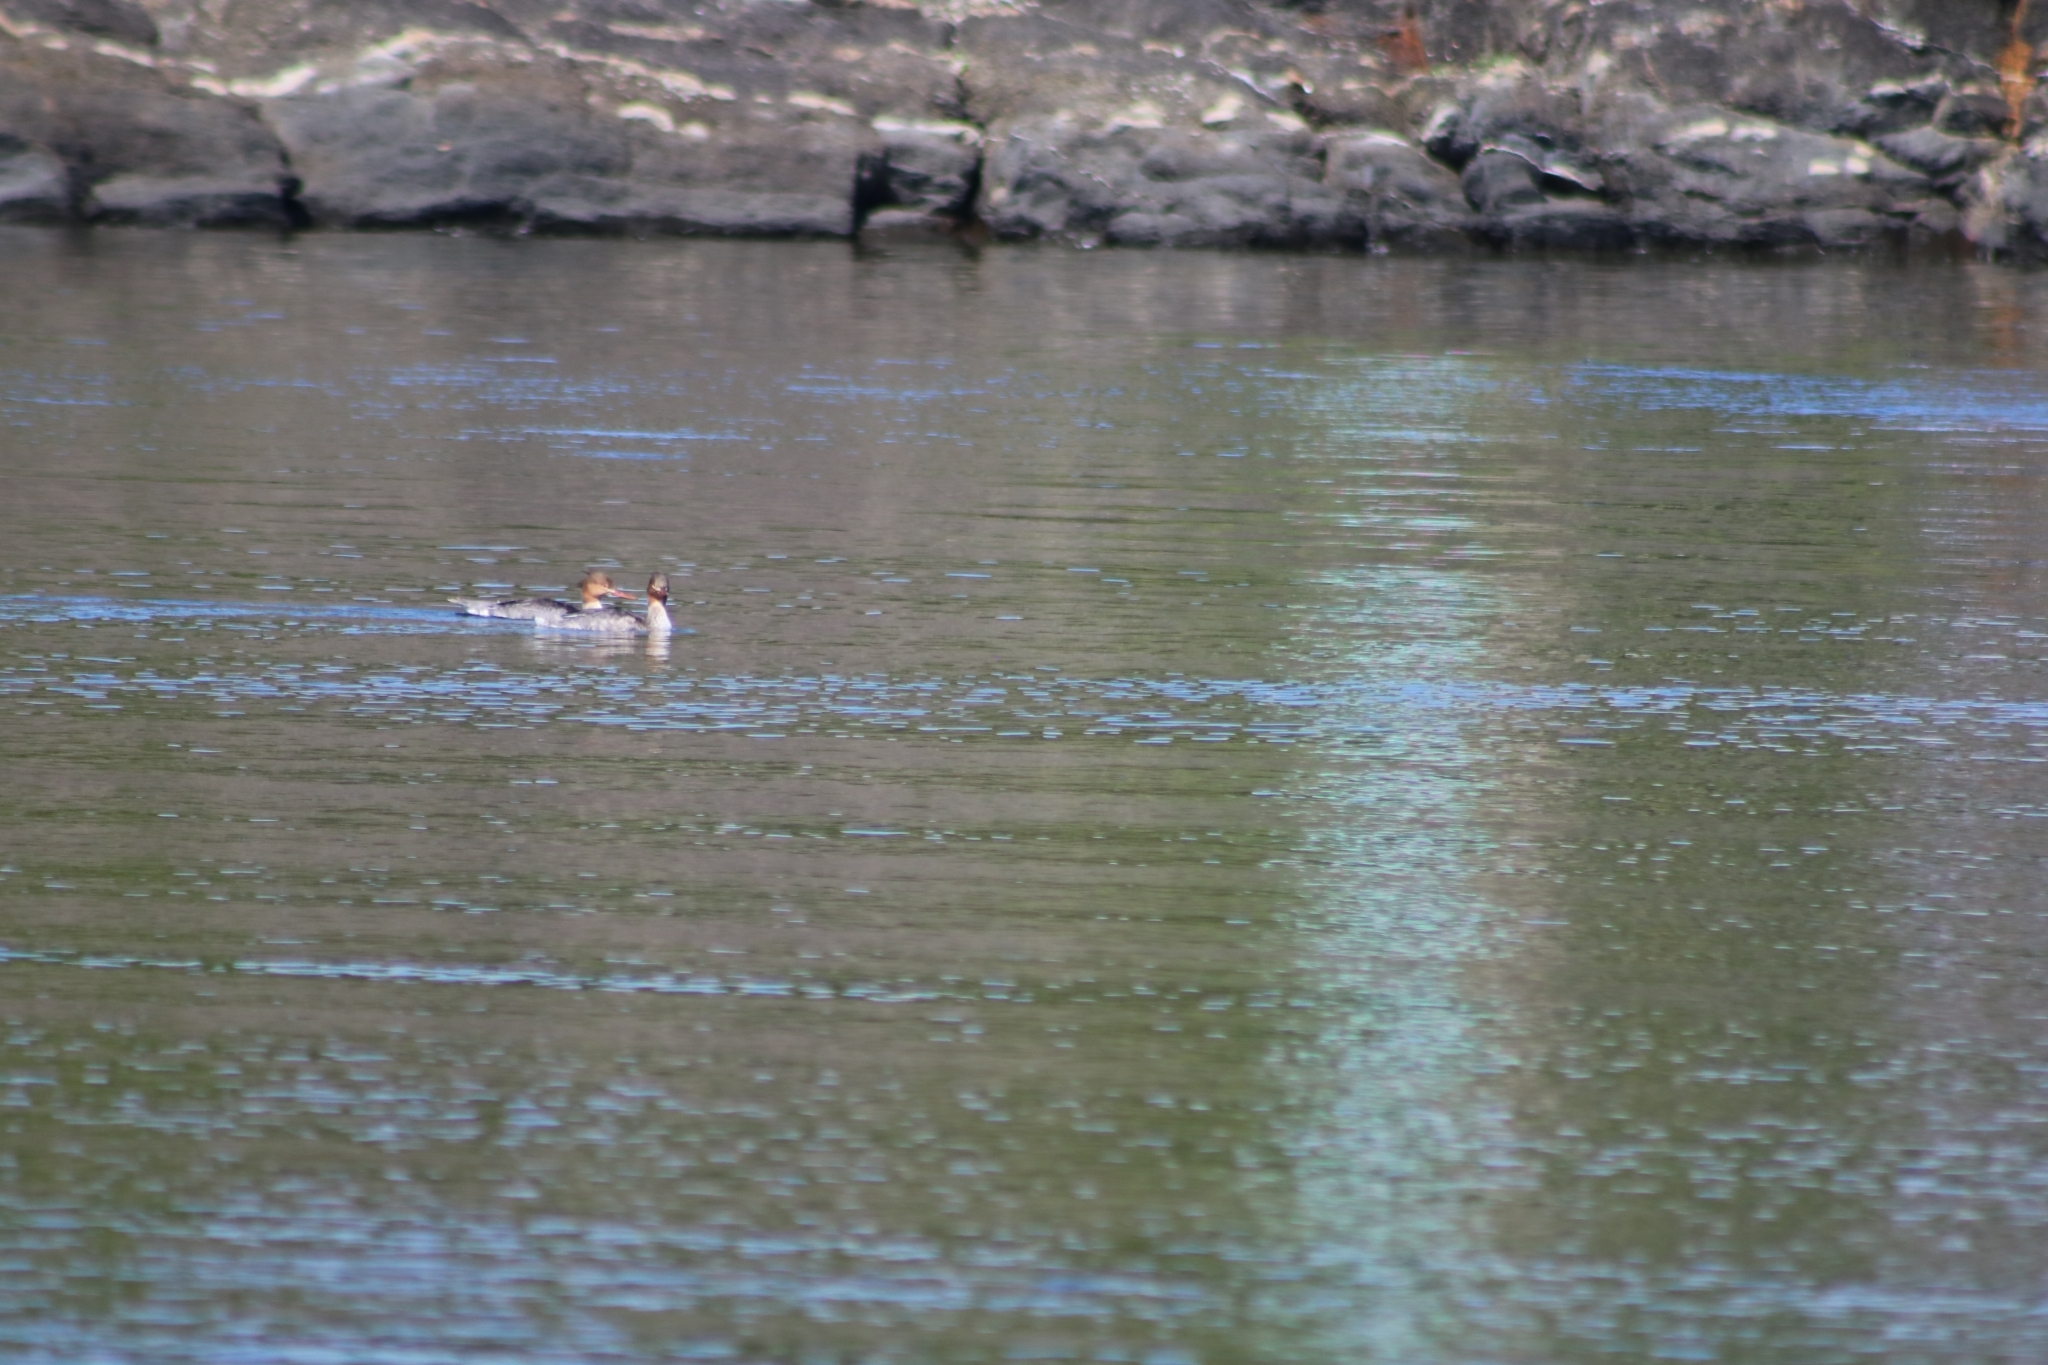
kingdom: Animalia
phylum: Chordata
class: Aves
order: Anseriformes
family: Anatidae
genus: Mergus
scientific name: Mergus merganser
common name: Common merganser
